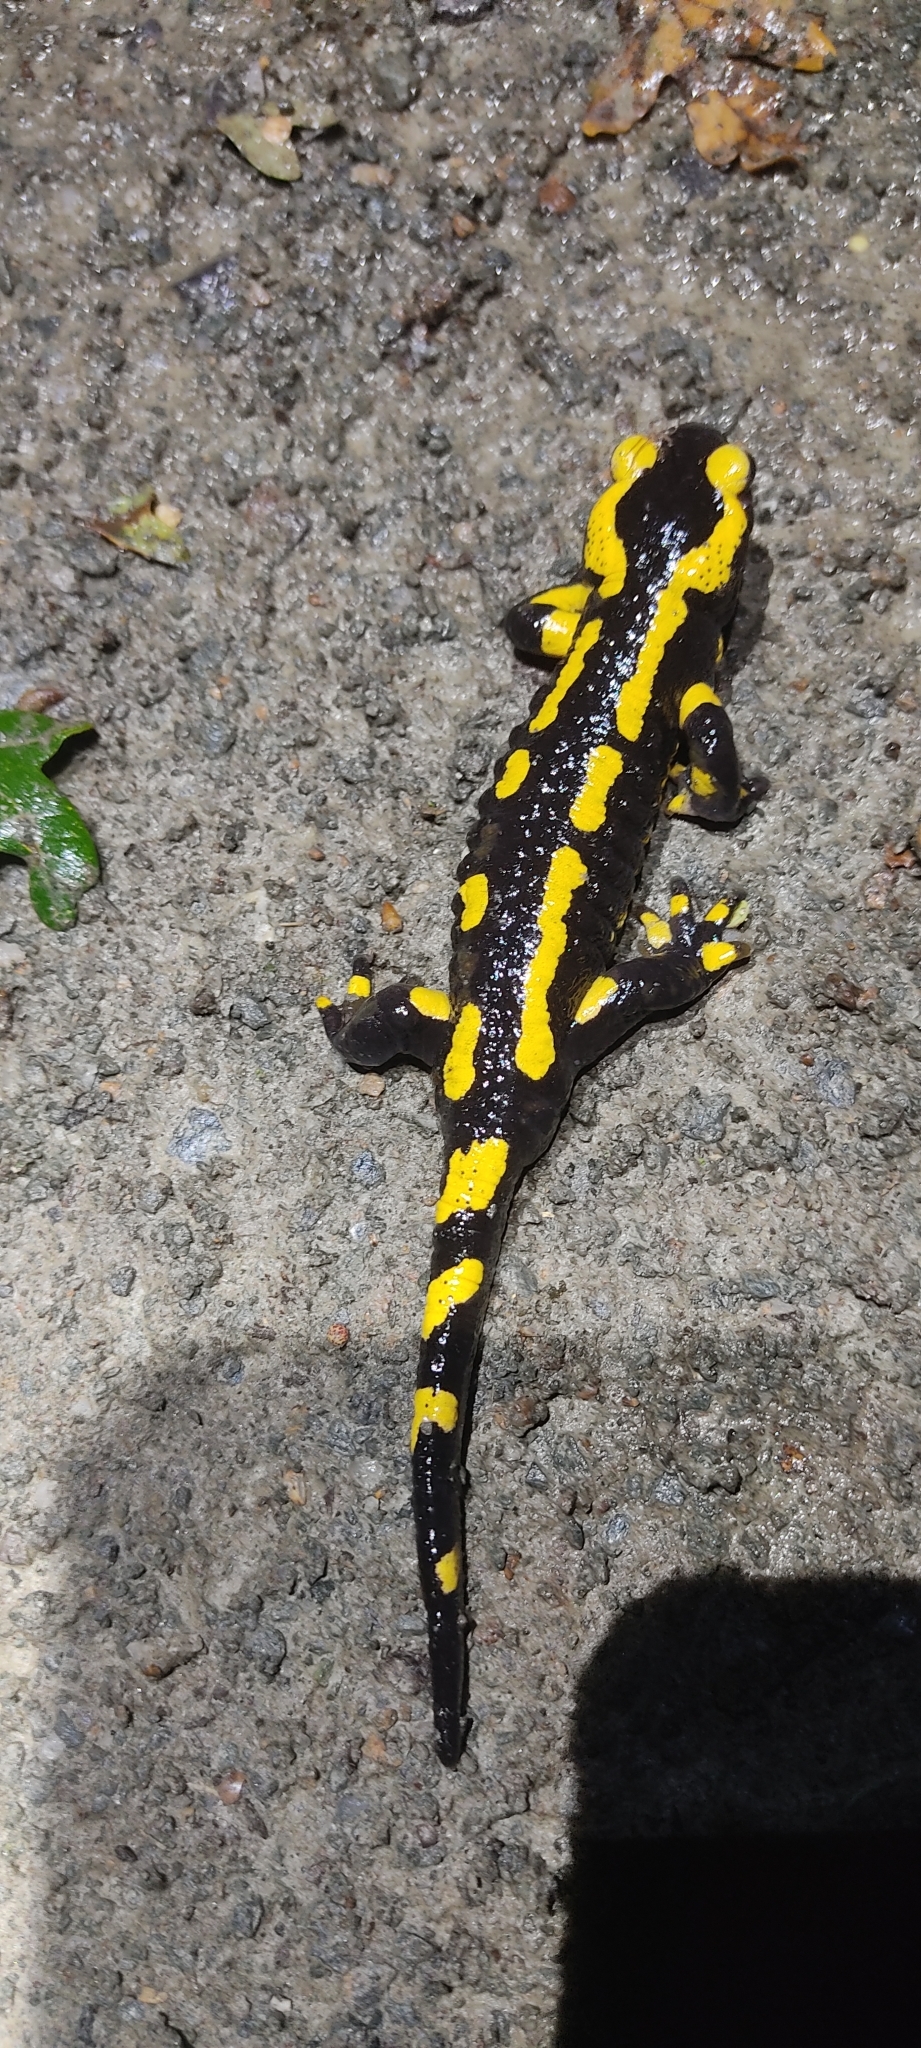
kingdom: Animalia
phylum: Chordata
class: Amphibia
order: Caudata
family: Salamandridae
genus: Salamandra
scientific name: Salamandra salamandra
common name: Fire salamander
